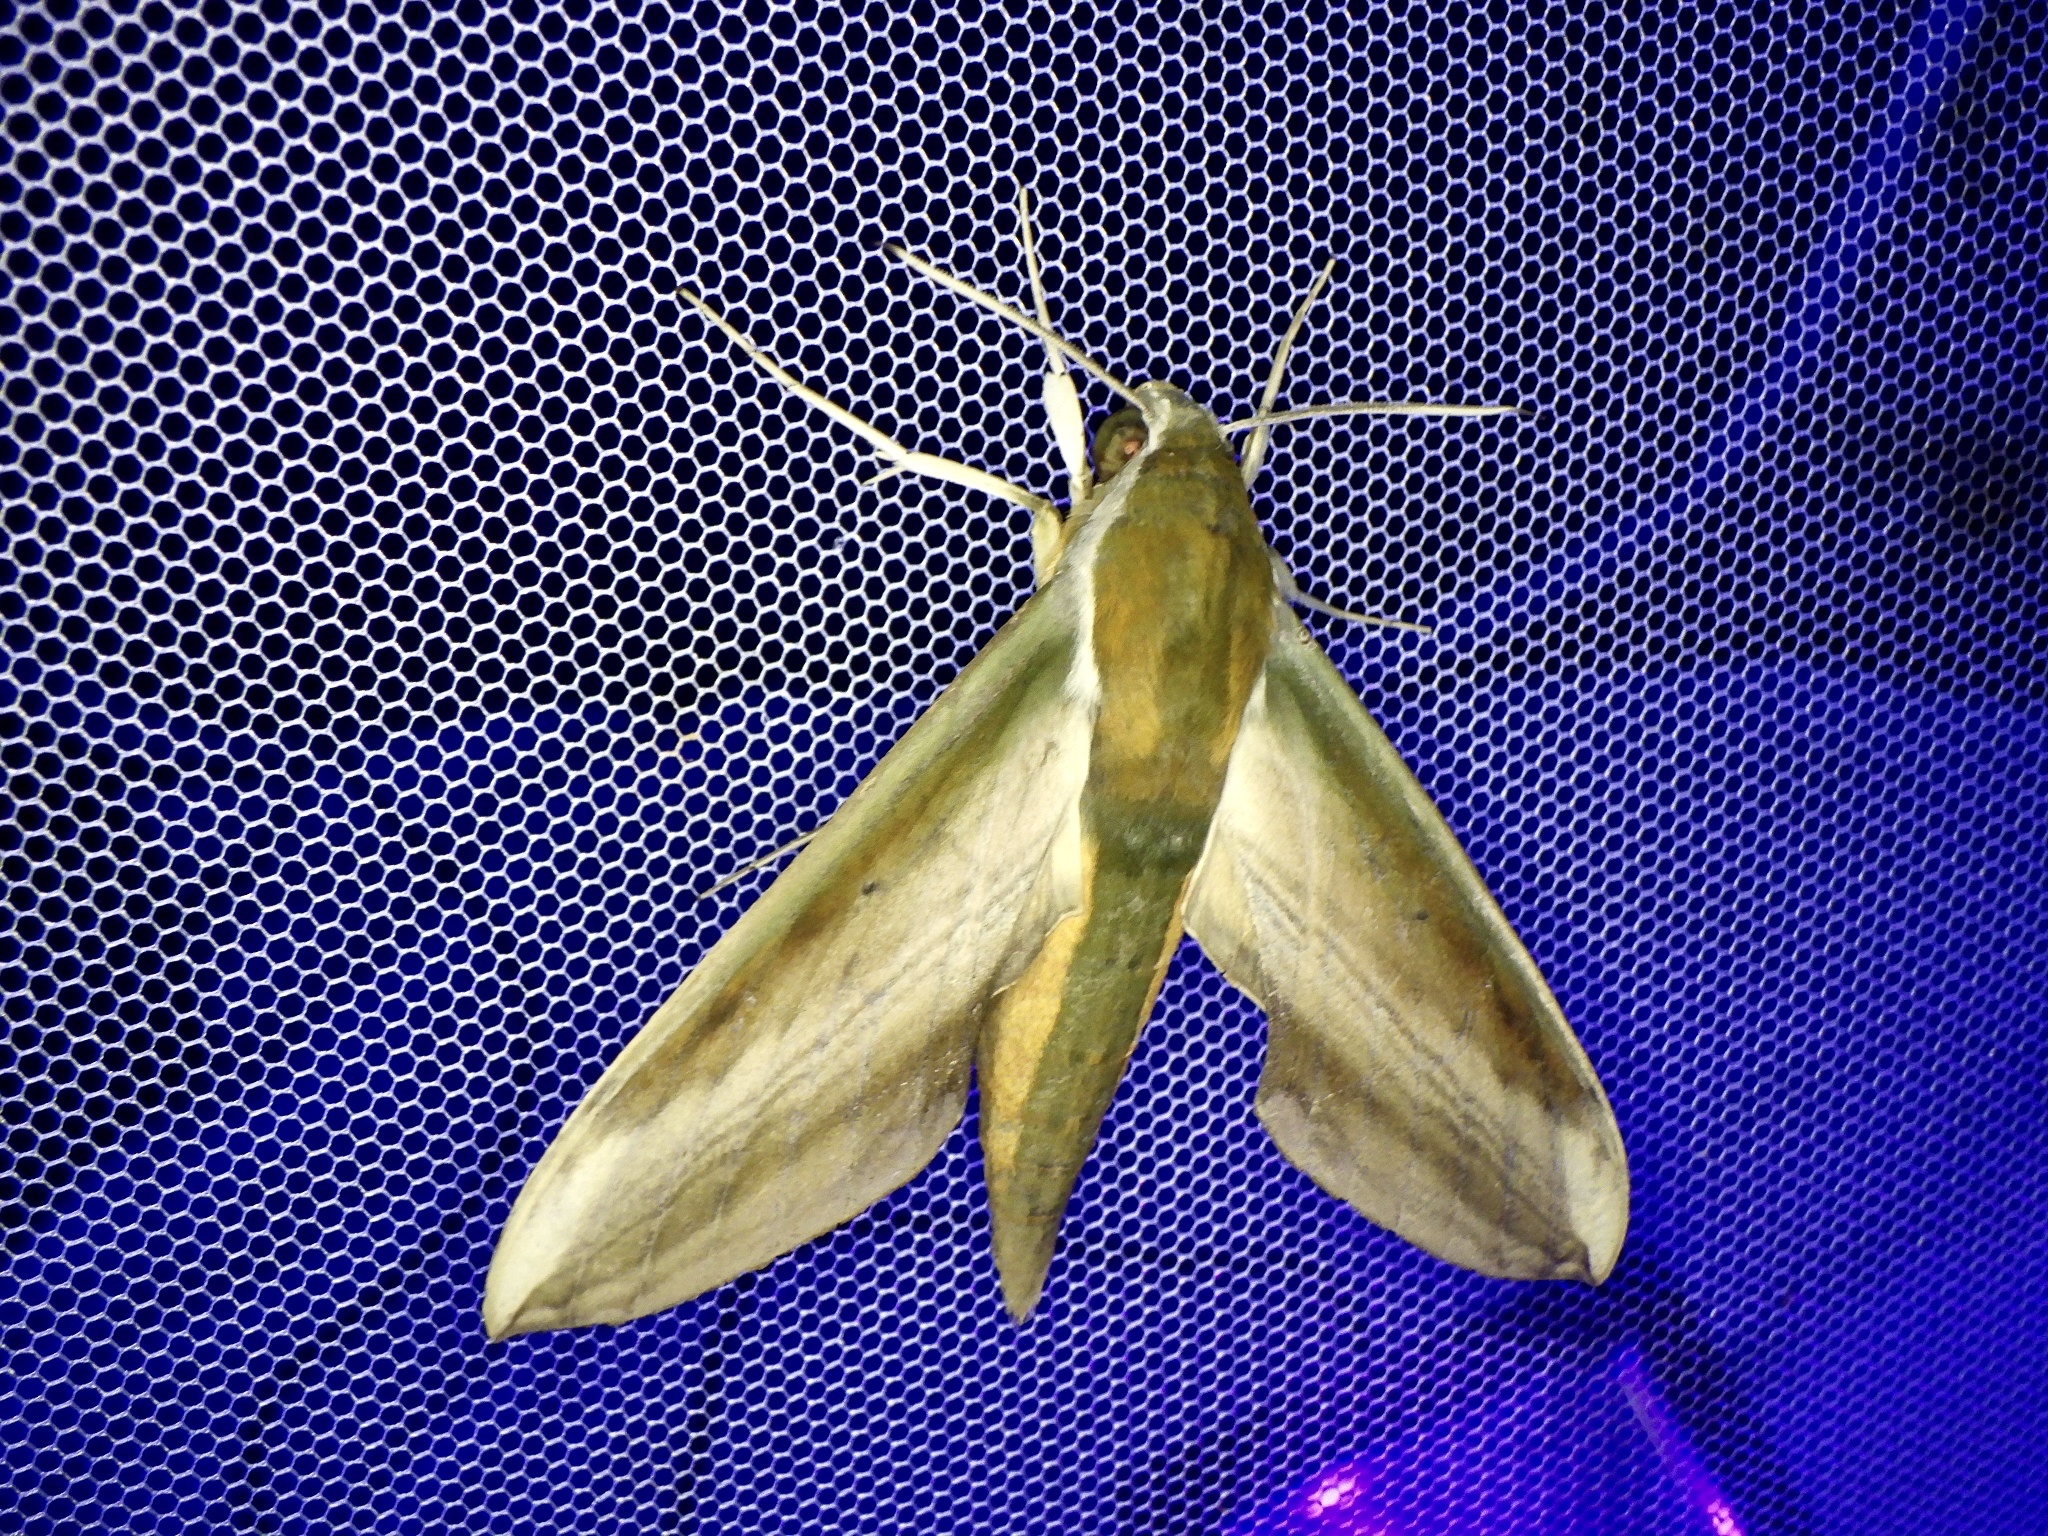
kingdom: Animalia
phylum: Arthropoda
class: Insecta
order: Lepidoptera
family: Sphingidae
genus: Theretra
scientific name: Theretra nessus
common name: Yam hawk moth
